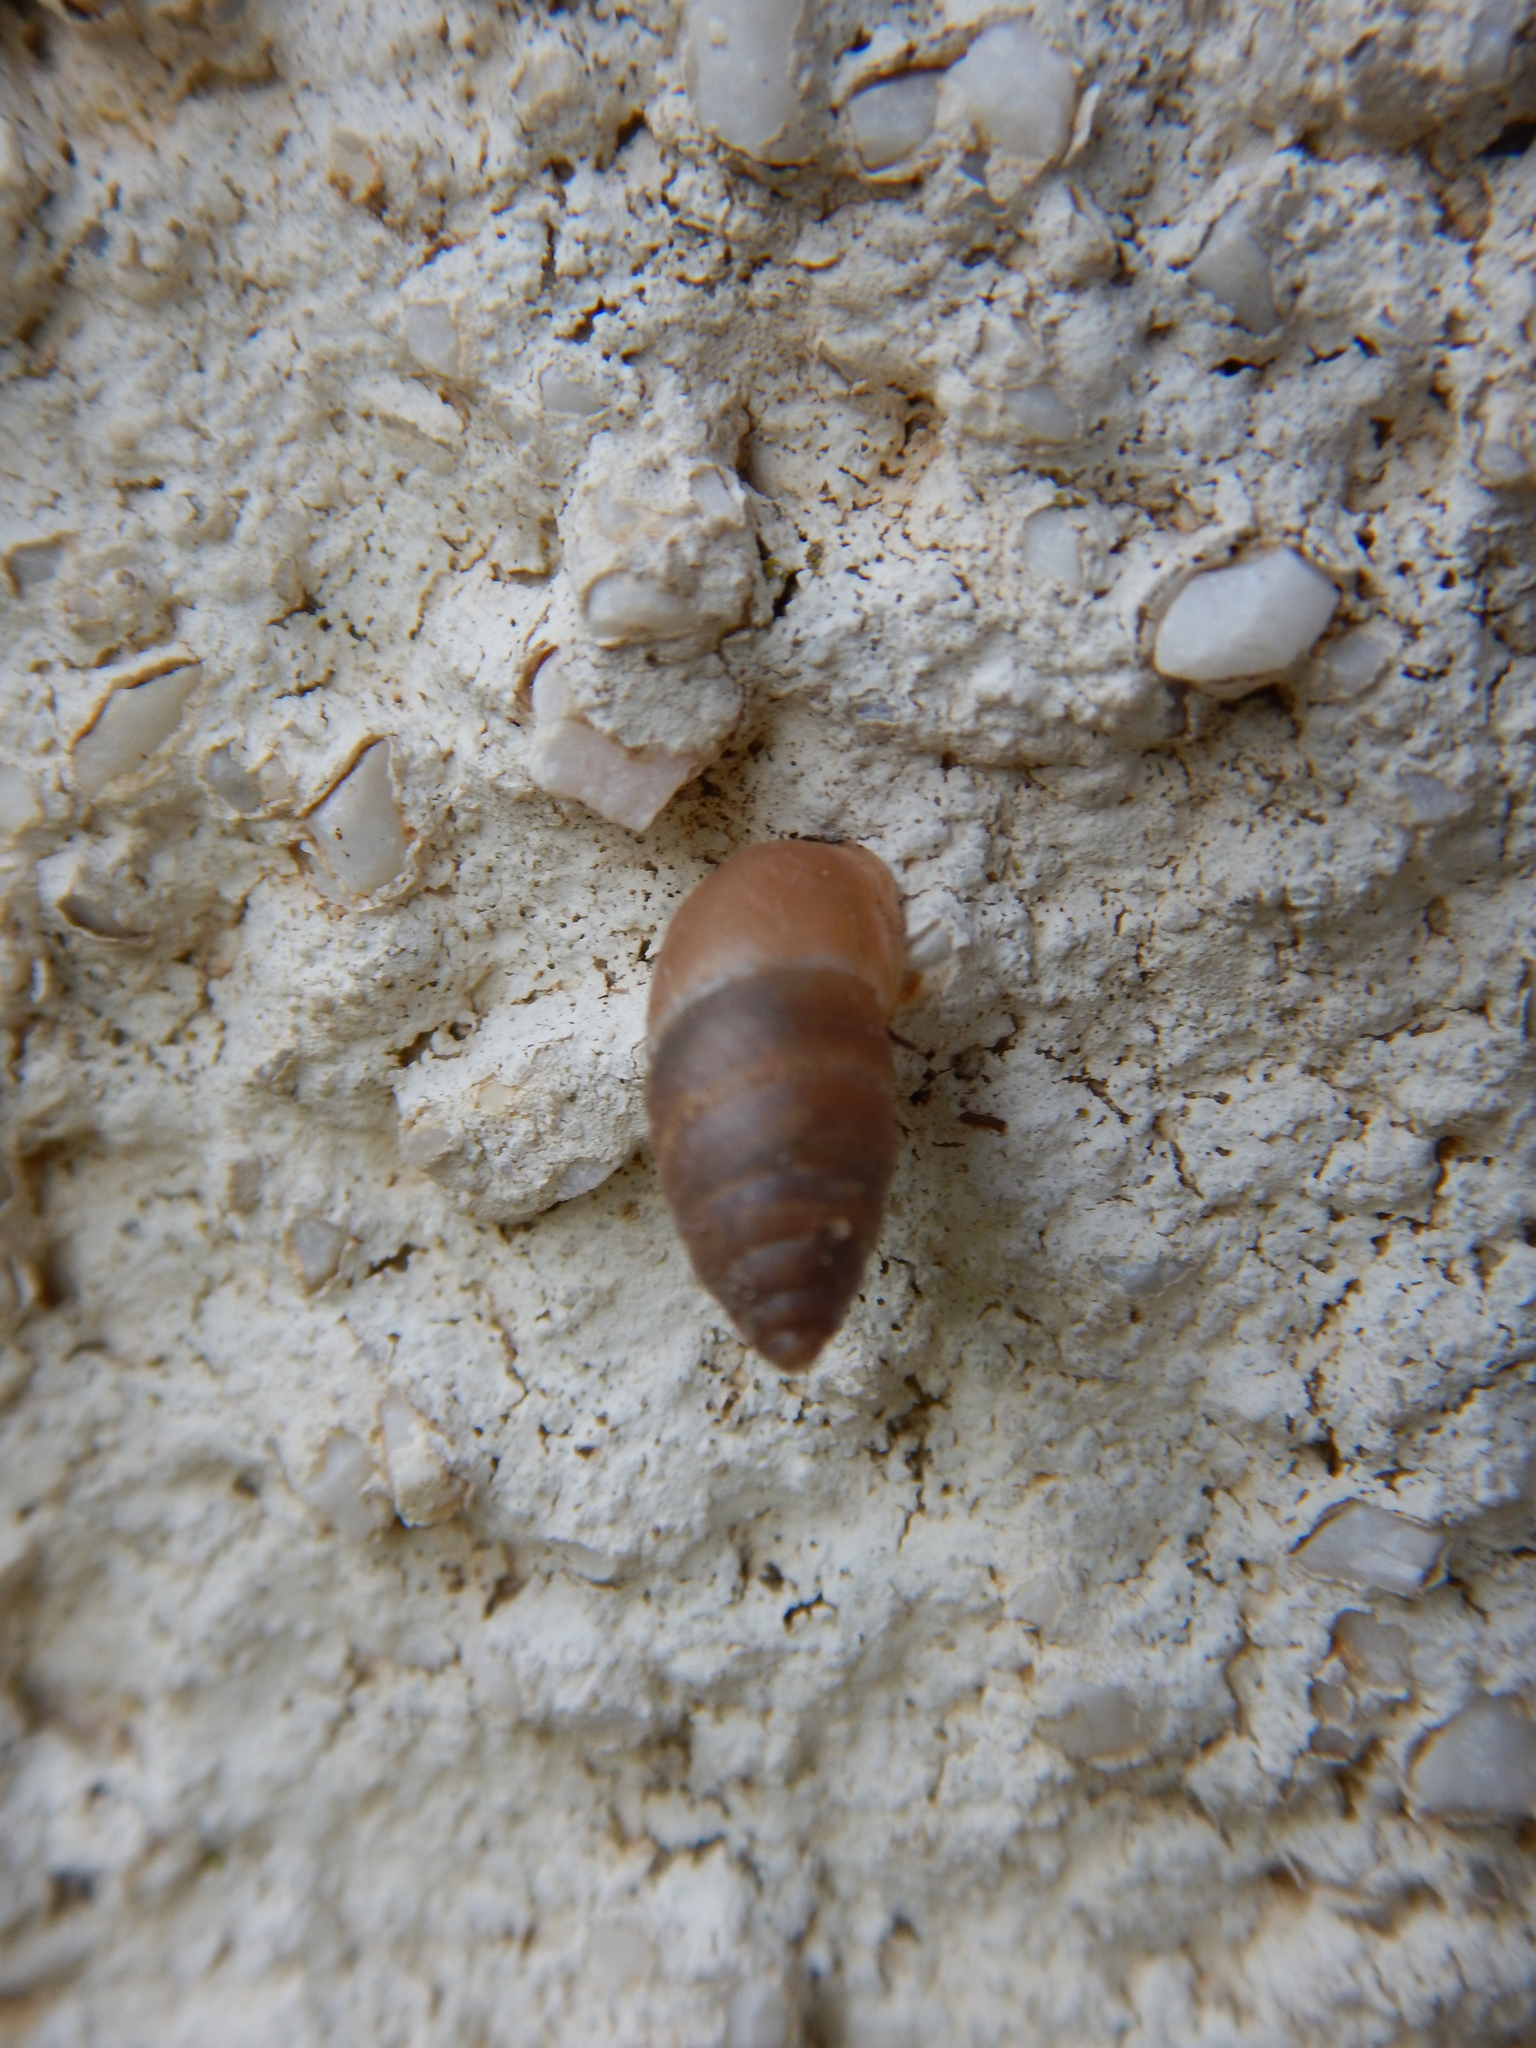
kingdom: Animalia
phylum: Mollusca
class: Gastropoda
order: Stylommatophora
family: Enidae
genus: Chondrula
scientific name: Chondrula microtragus
